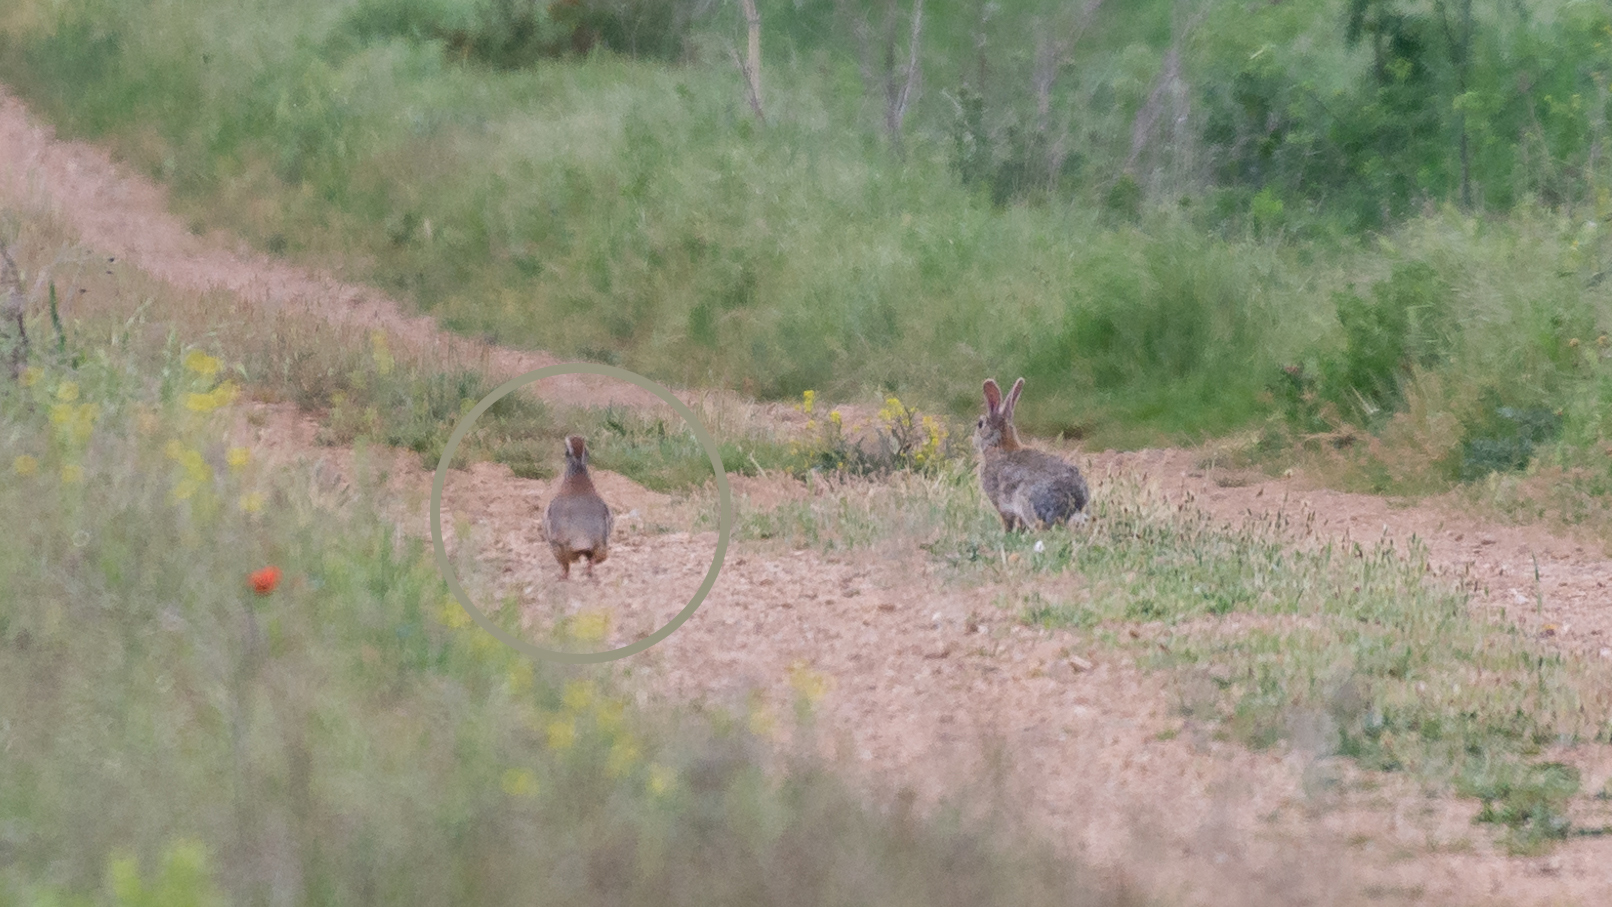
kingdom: Animalia
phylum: Chordata
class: Aves
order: Galliformes
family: Phasianidae
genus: Alectoris
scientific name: Alectoris rufa
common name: Red-legged partridge
